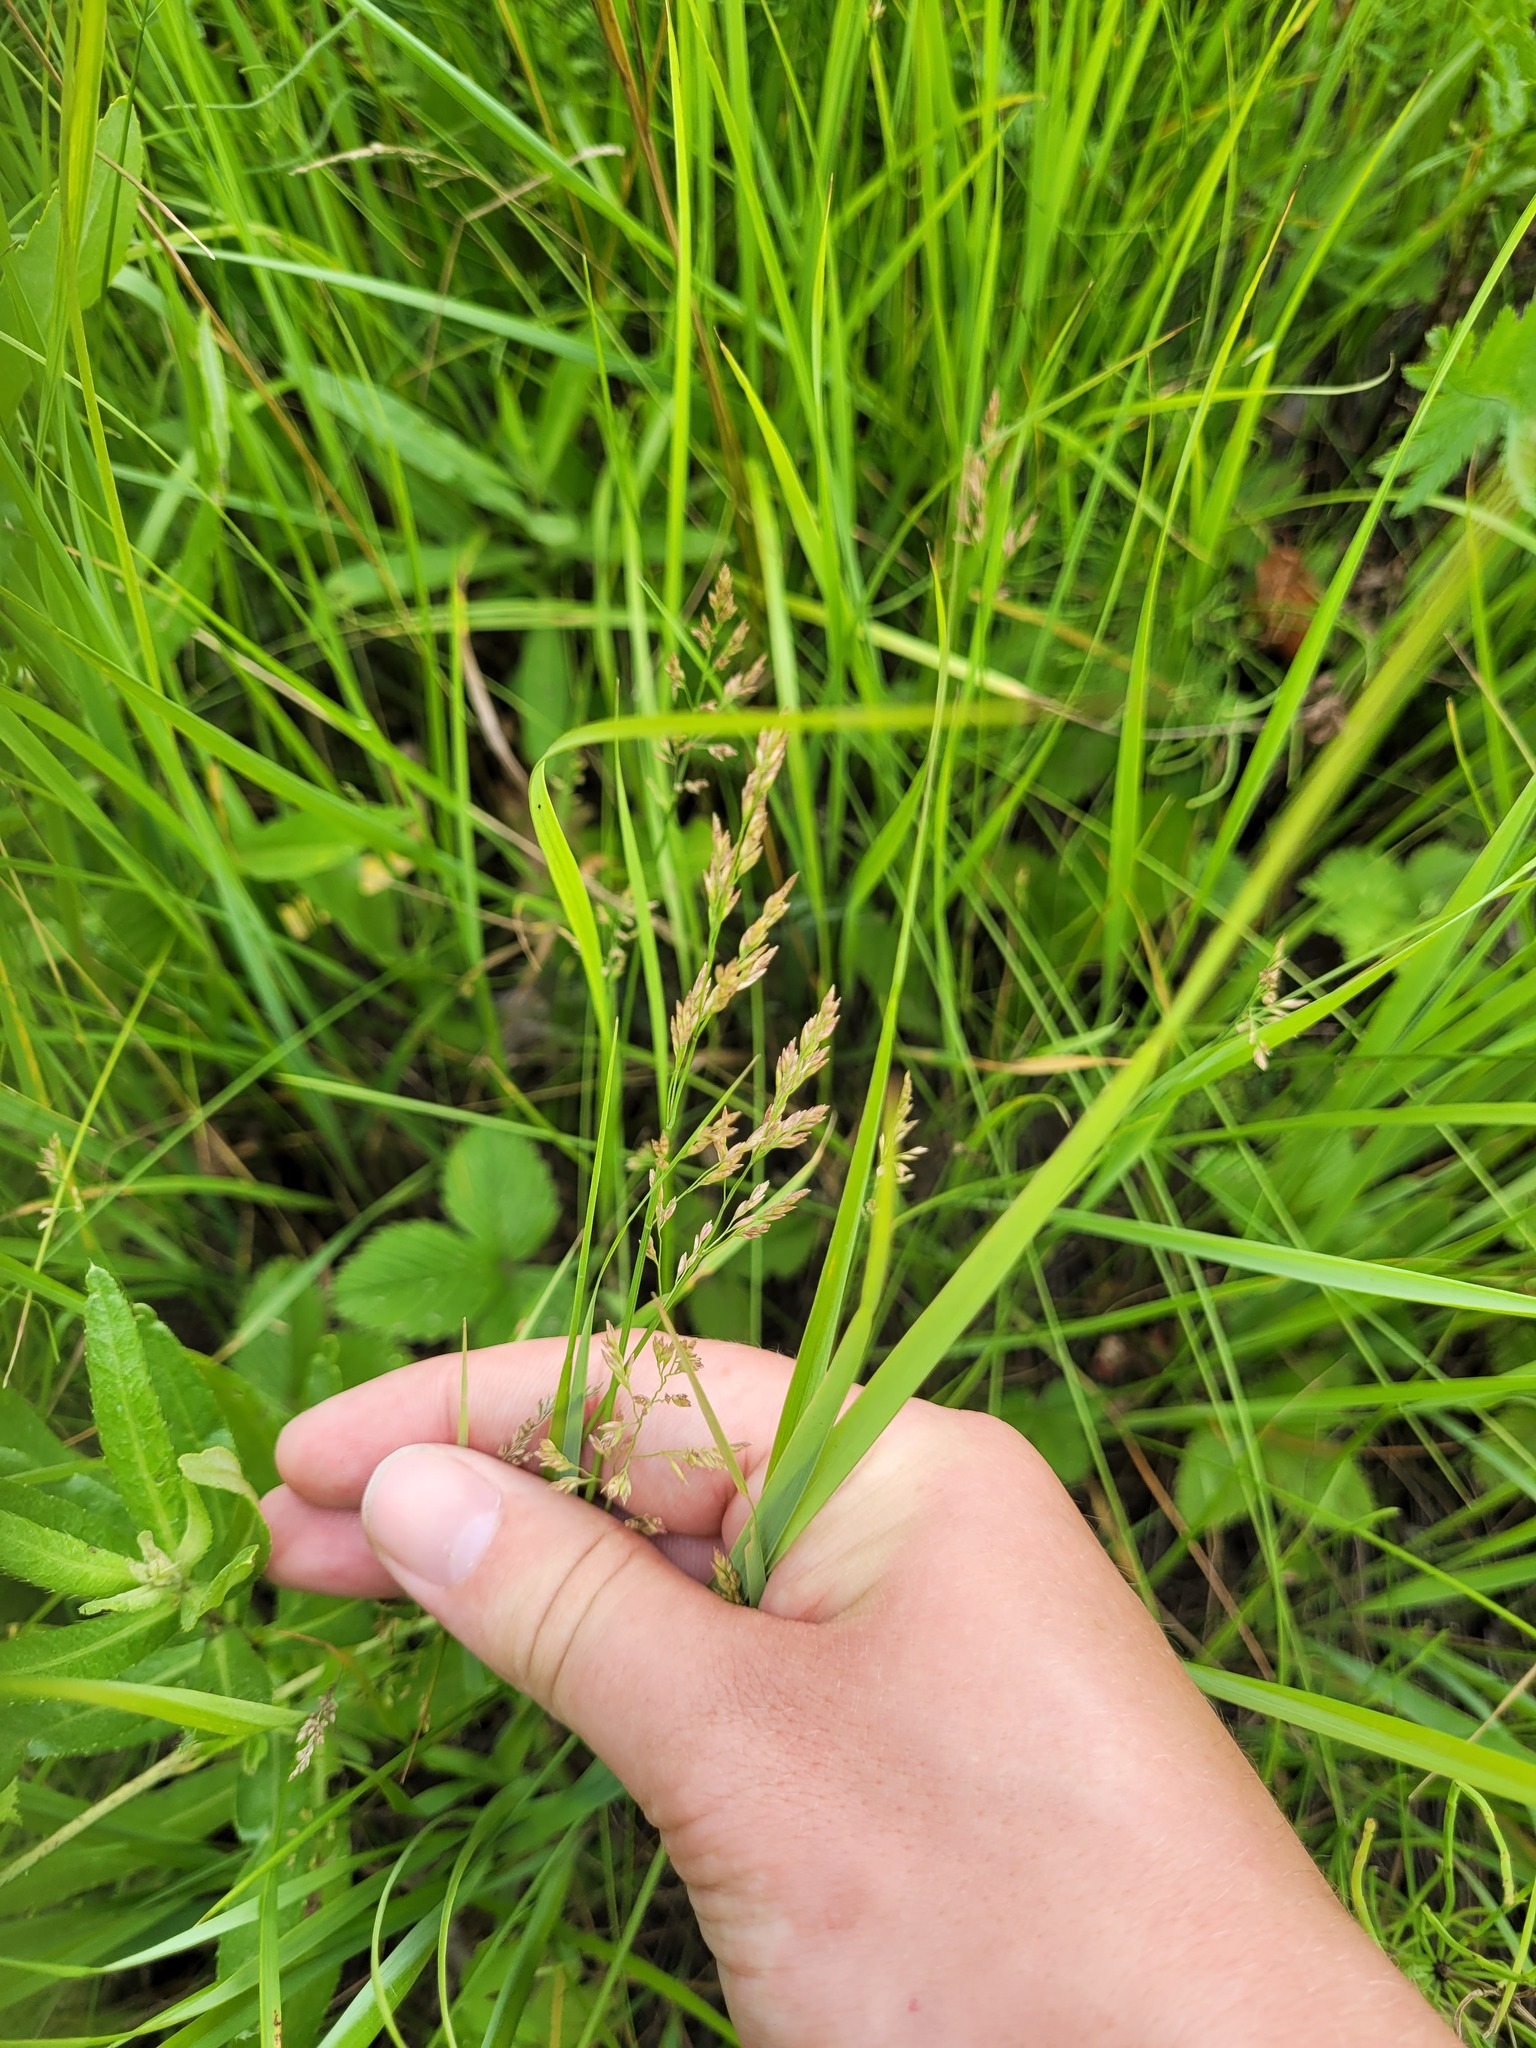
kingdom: Plantae
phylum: Tracheophyta
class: Liliopsida
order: Poales
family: Poaceae
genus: Poa
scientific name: Poa compressa
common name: Canada bluegrass
